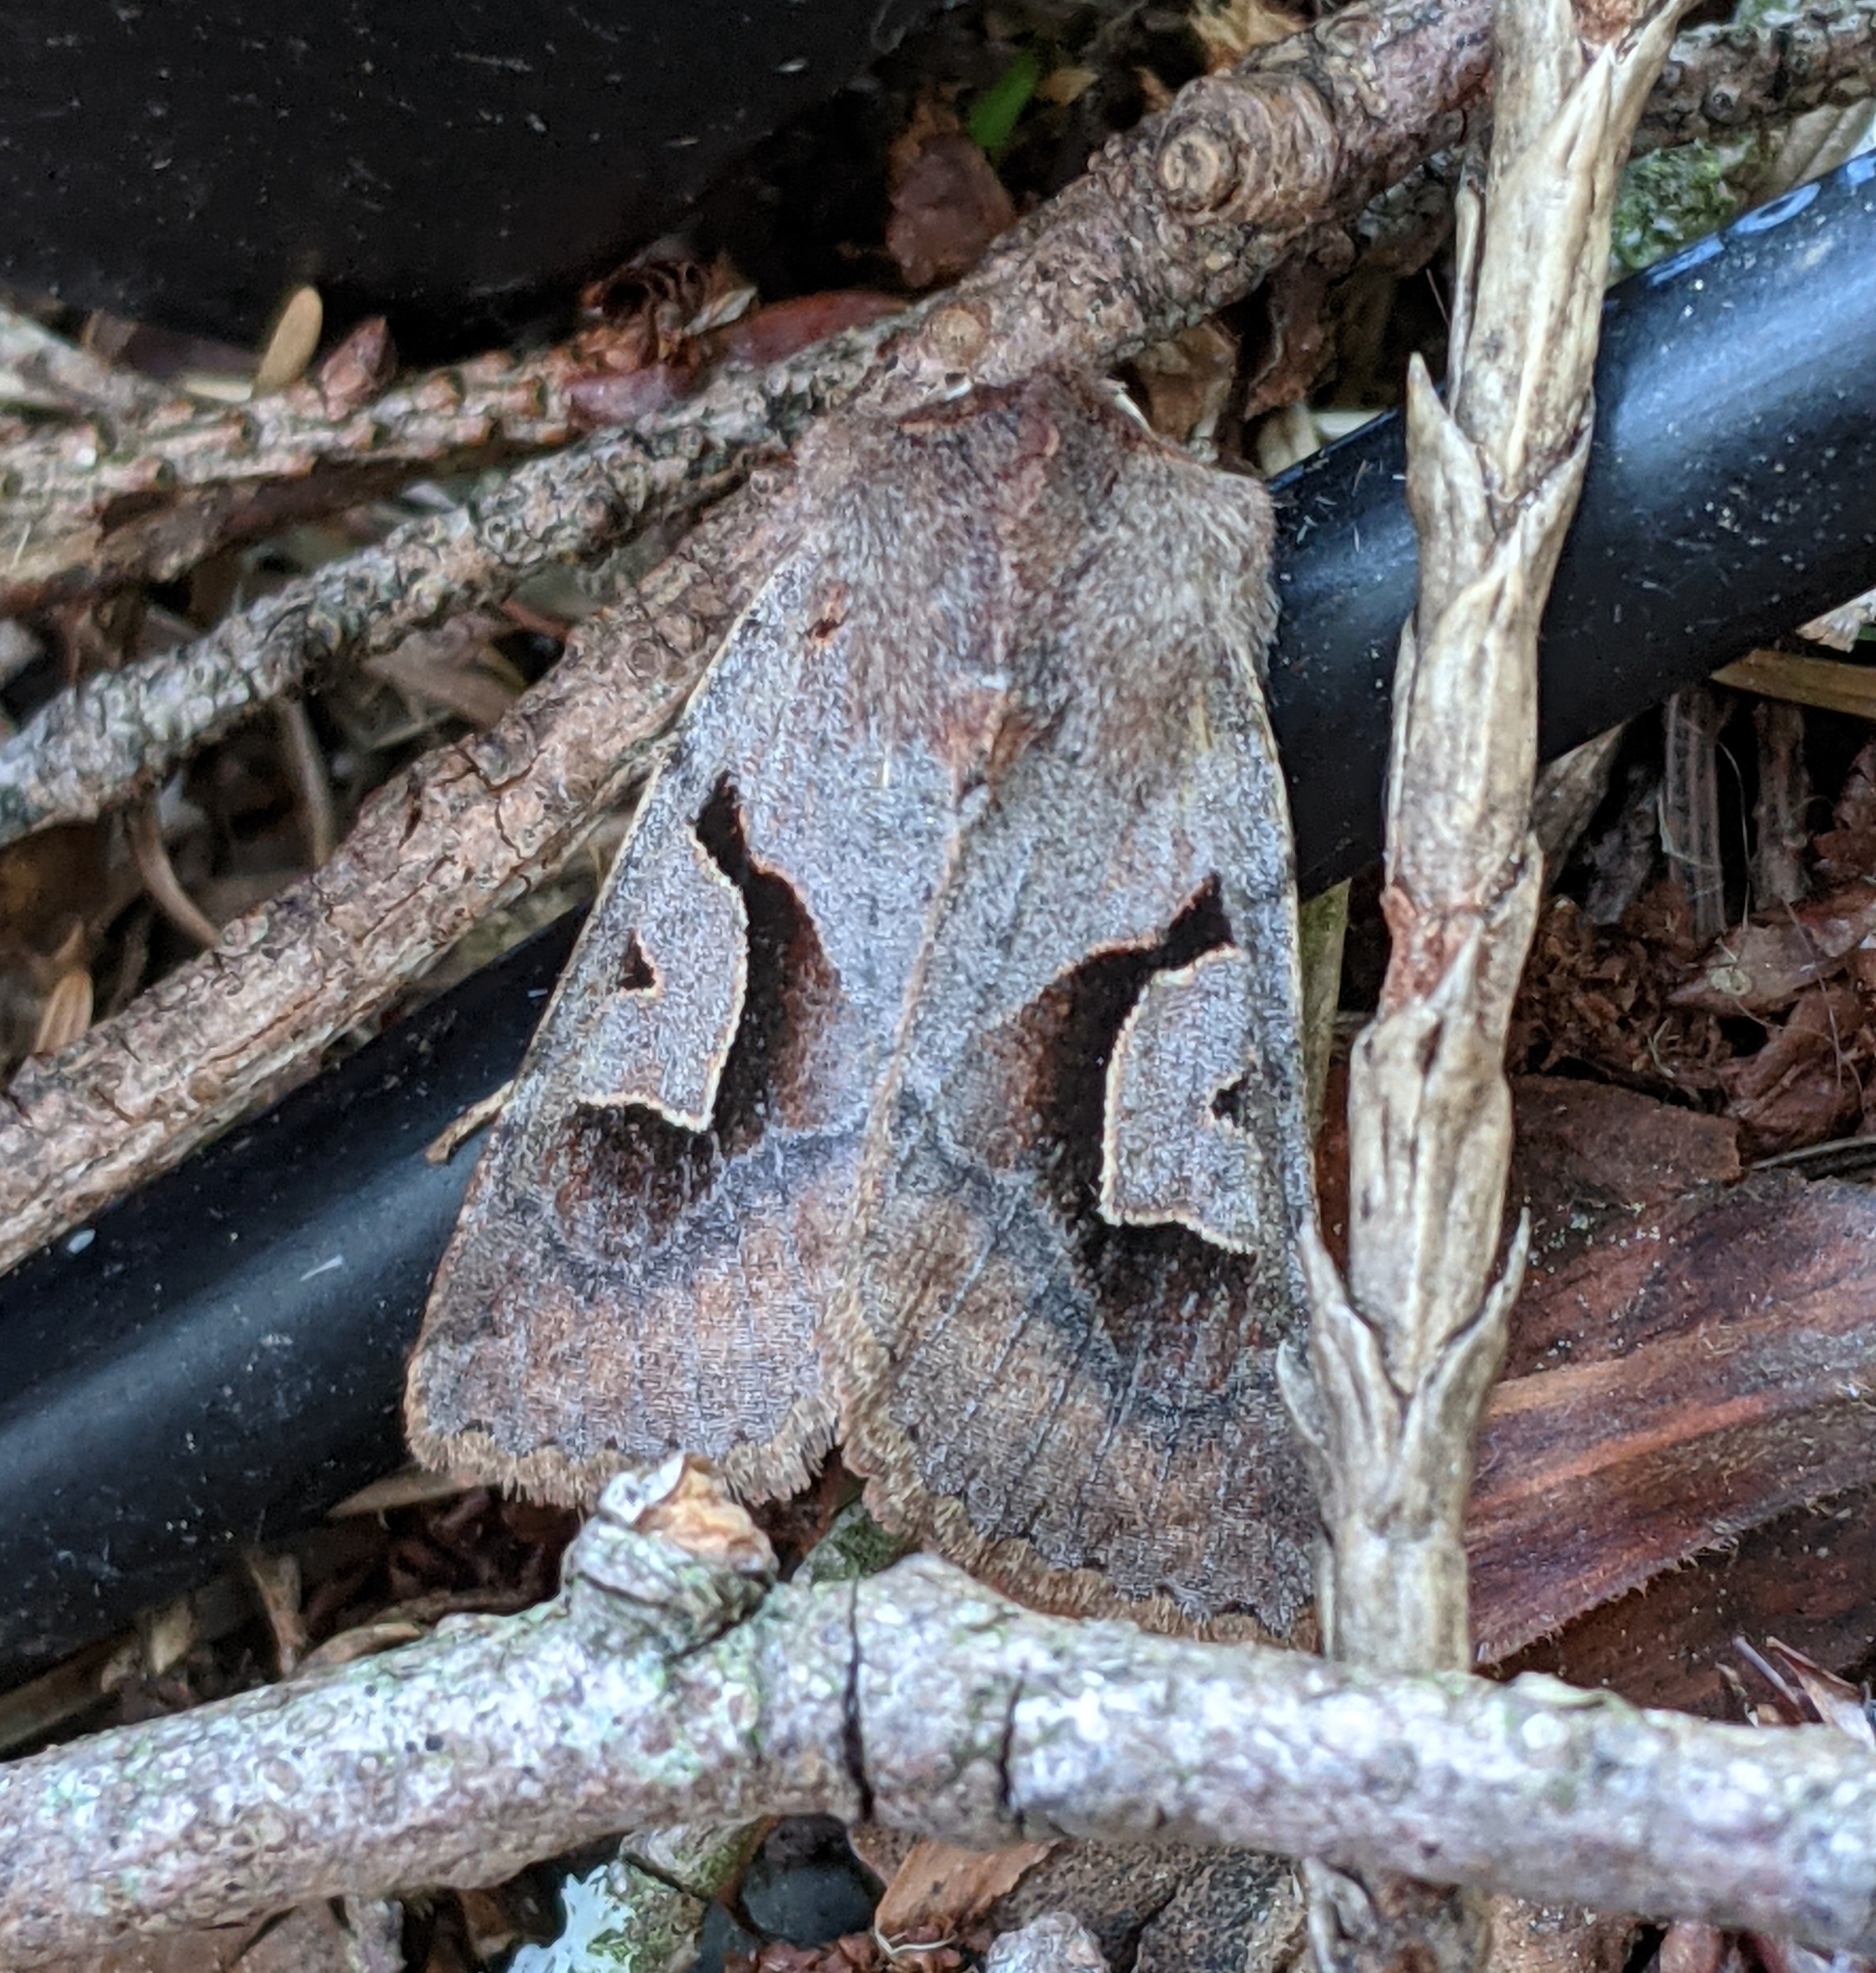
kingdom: Animalia
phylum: Arthropoda
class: Insecta
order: Lepidoptera
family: Noctuidae
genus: Acerra
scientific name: Acerra normalis
